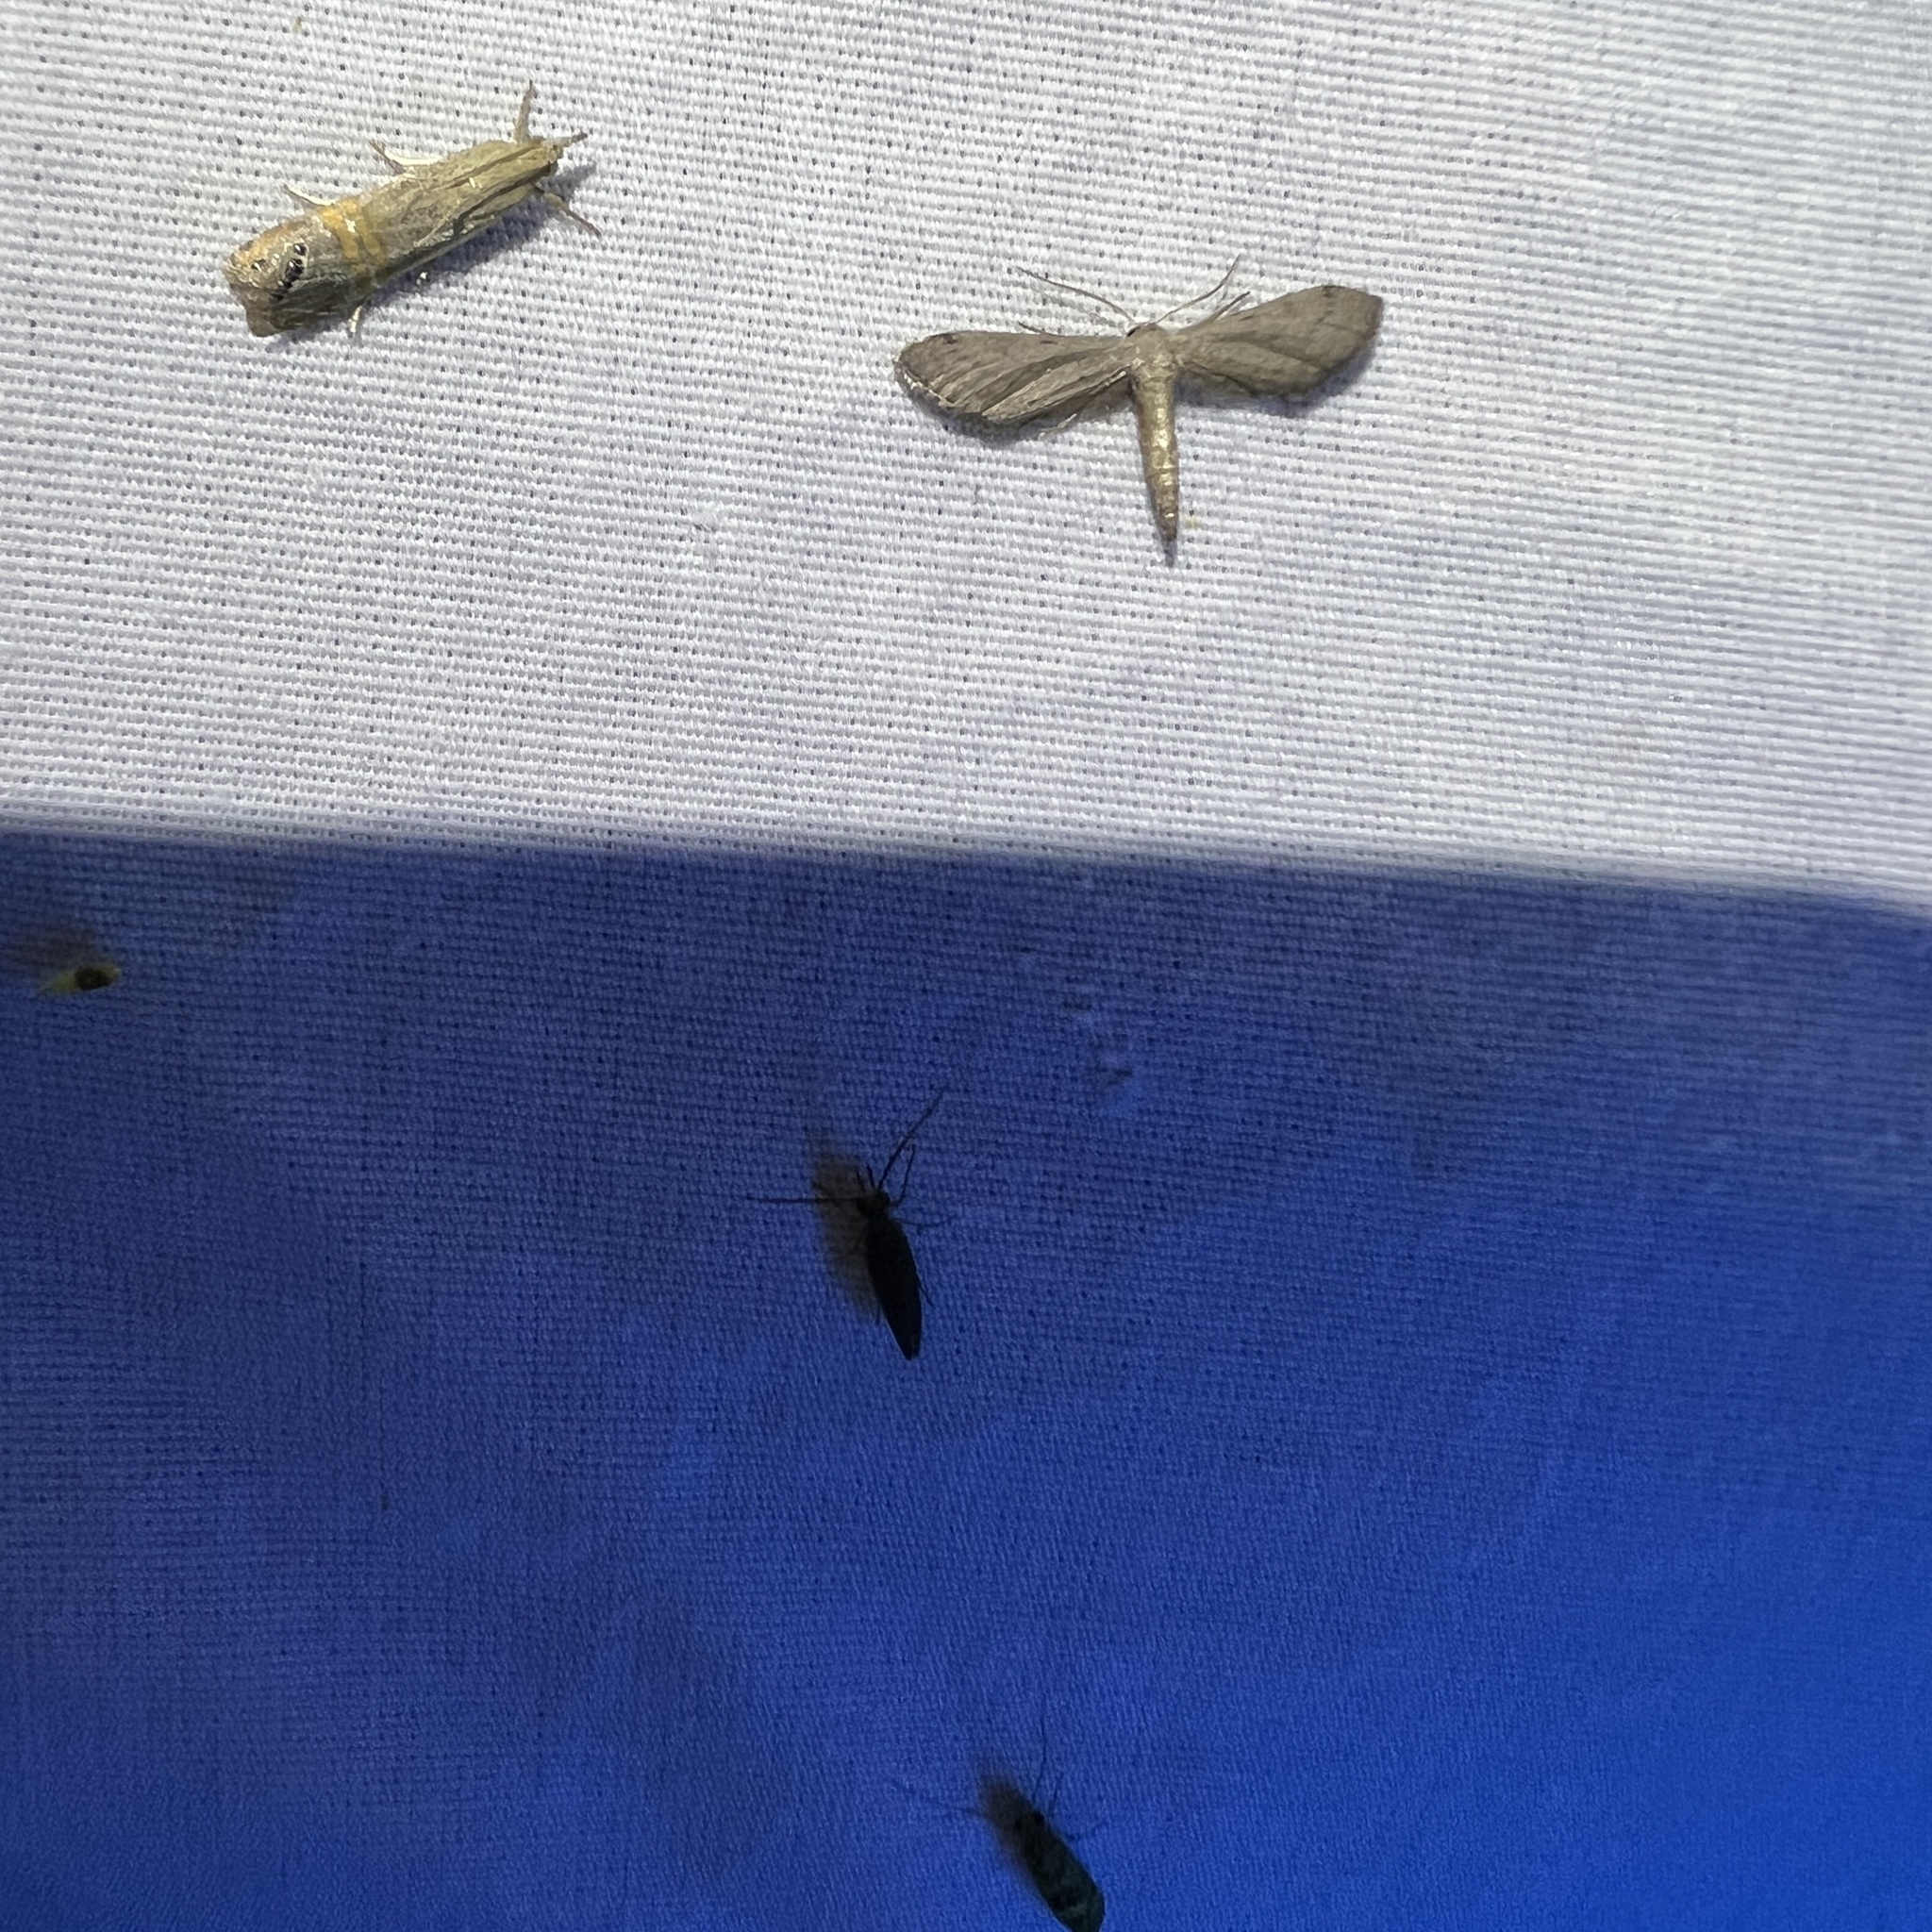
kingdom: Animalia
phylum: Arthropoda
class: Insecta
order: Lepidoptera
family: Geometridae
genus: Tornos
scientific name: Tornos scolopacinaria
